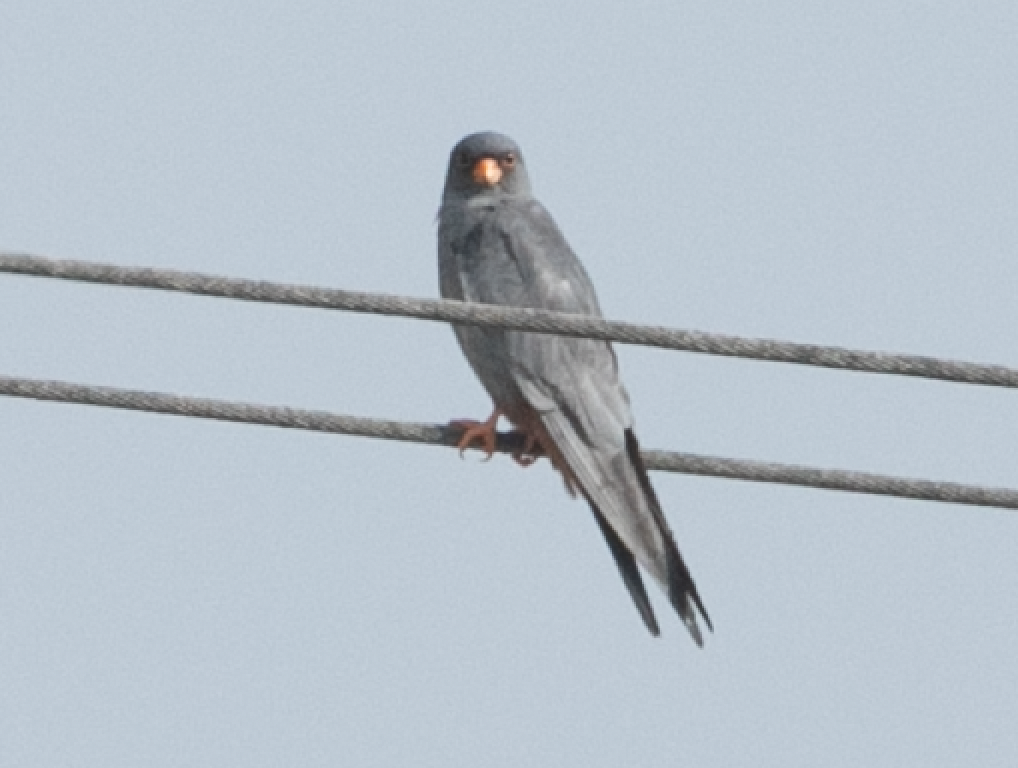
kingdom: Animalia
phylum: Chordata
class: Aves
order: Falconiformes
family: Falconidae
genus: Falco
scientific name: Falco vespertinus
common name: Red-footed falcon
